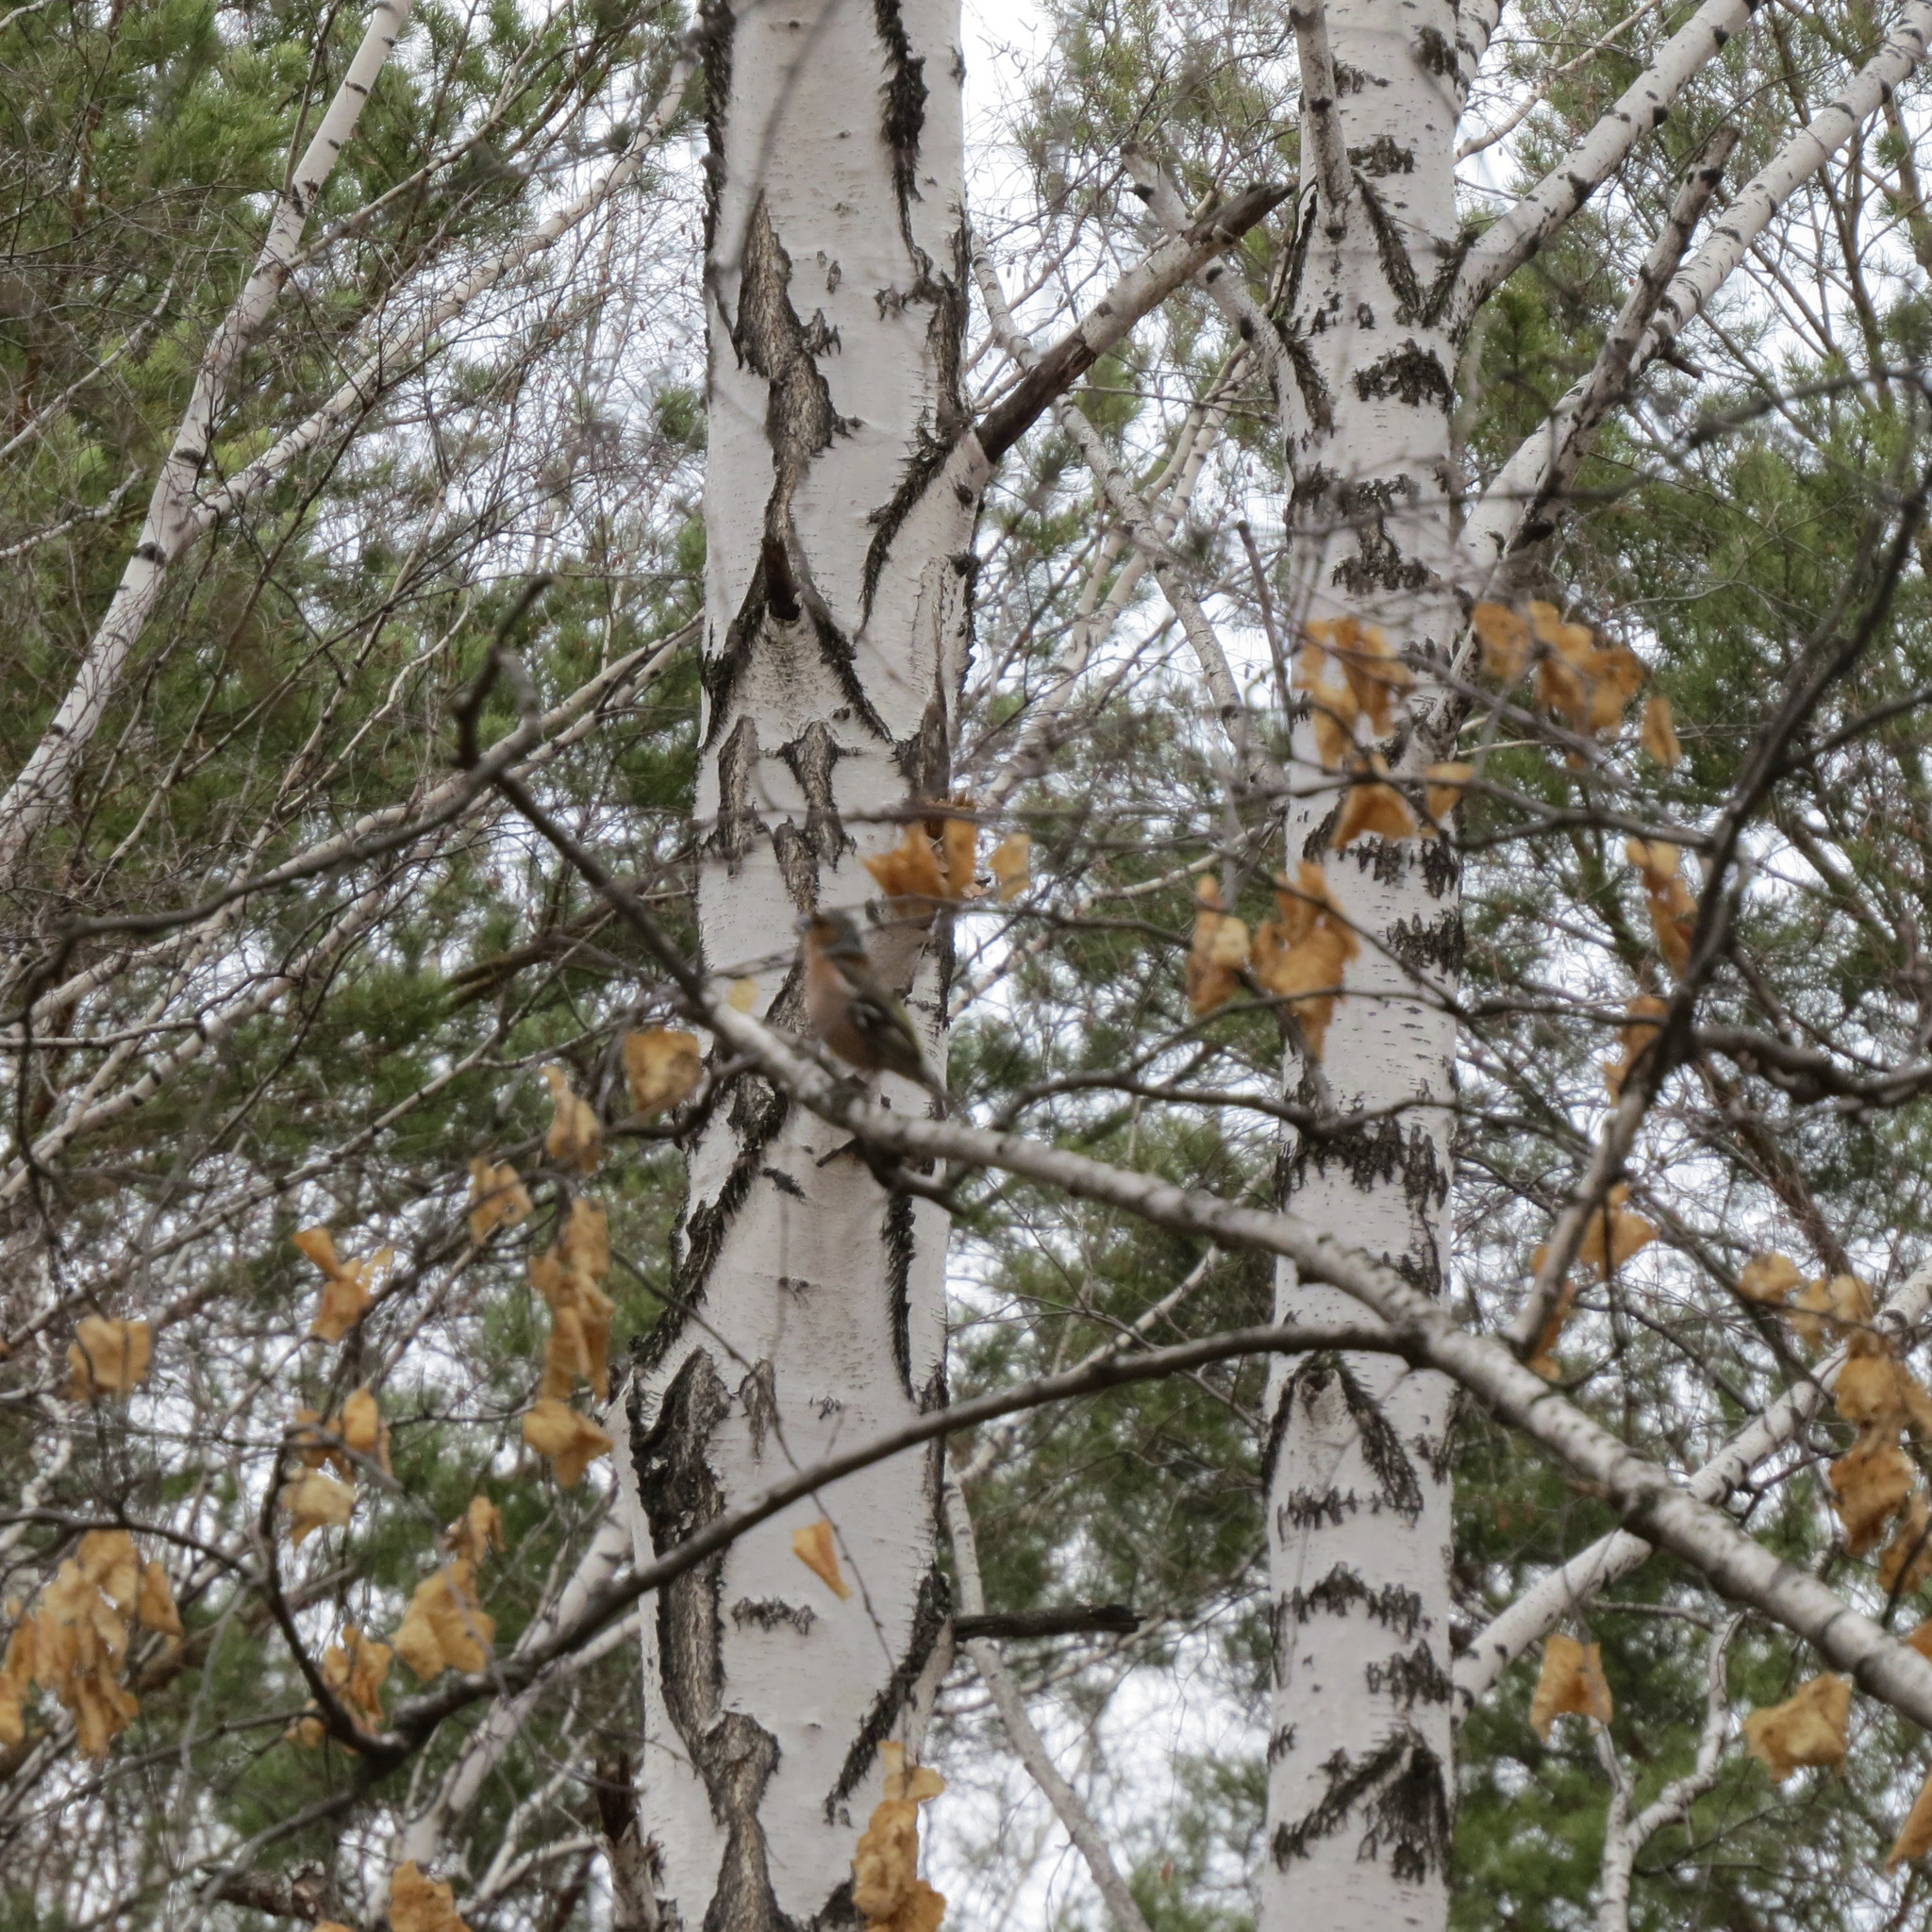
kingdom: Animalia
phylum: Chordata
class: Aves
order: Passeriformes
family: Fringillidae
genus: Fringilla
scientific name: Fringilla coelebs
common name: Common chaffinch
